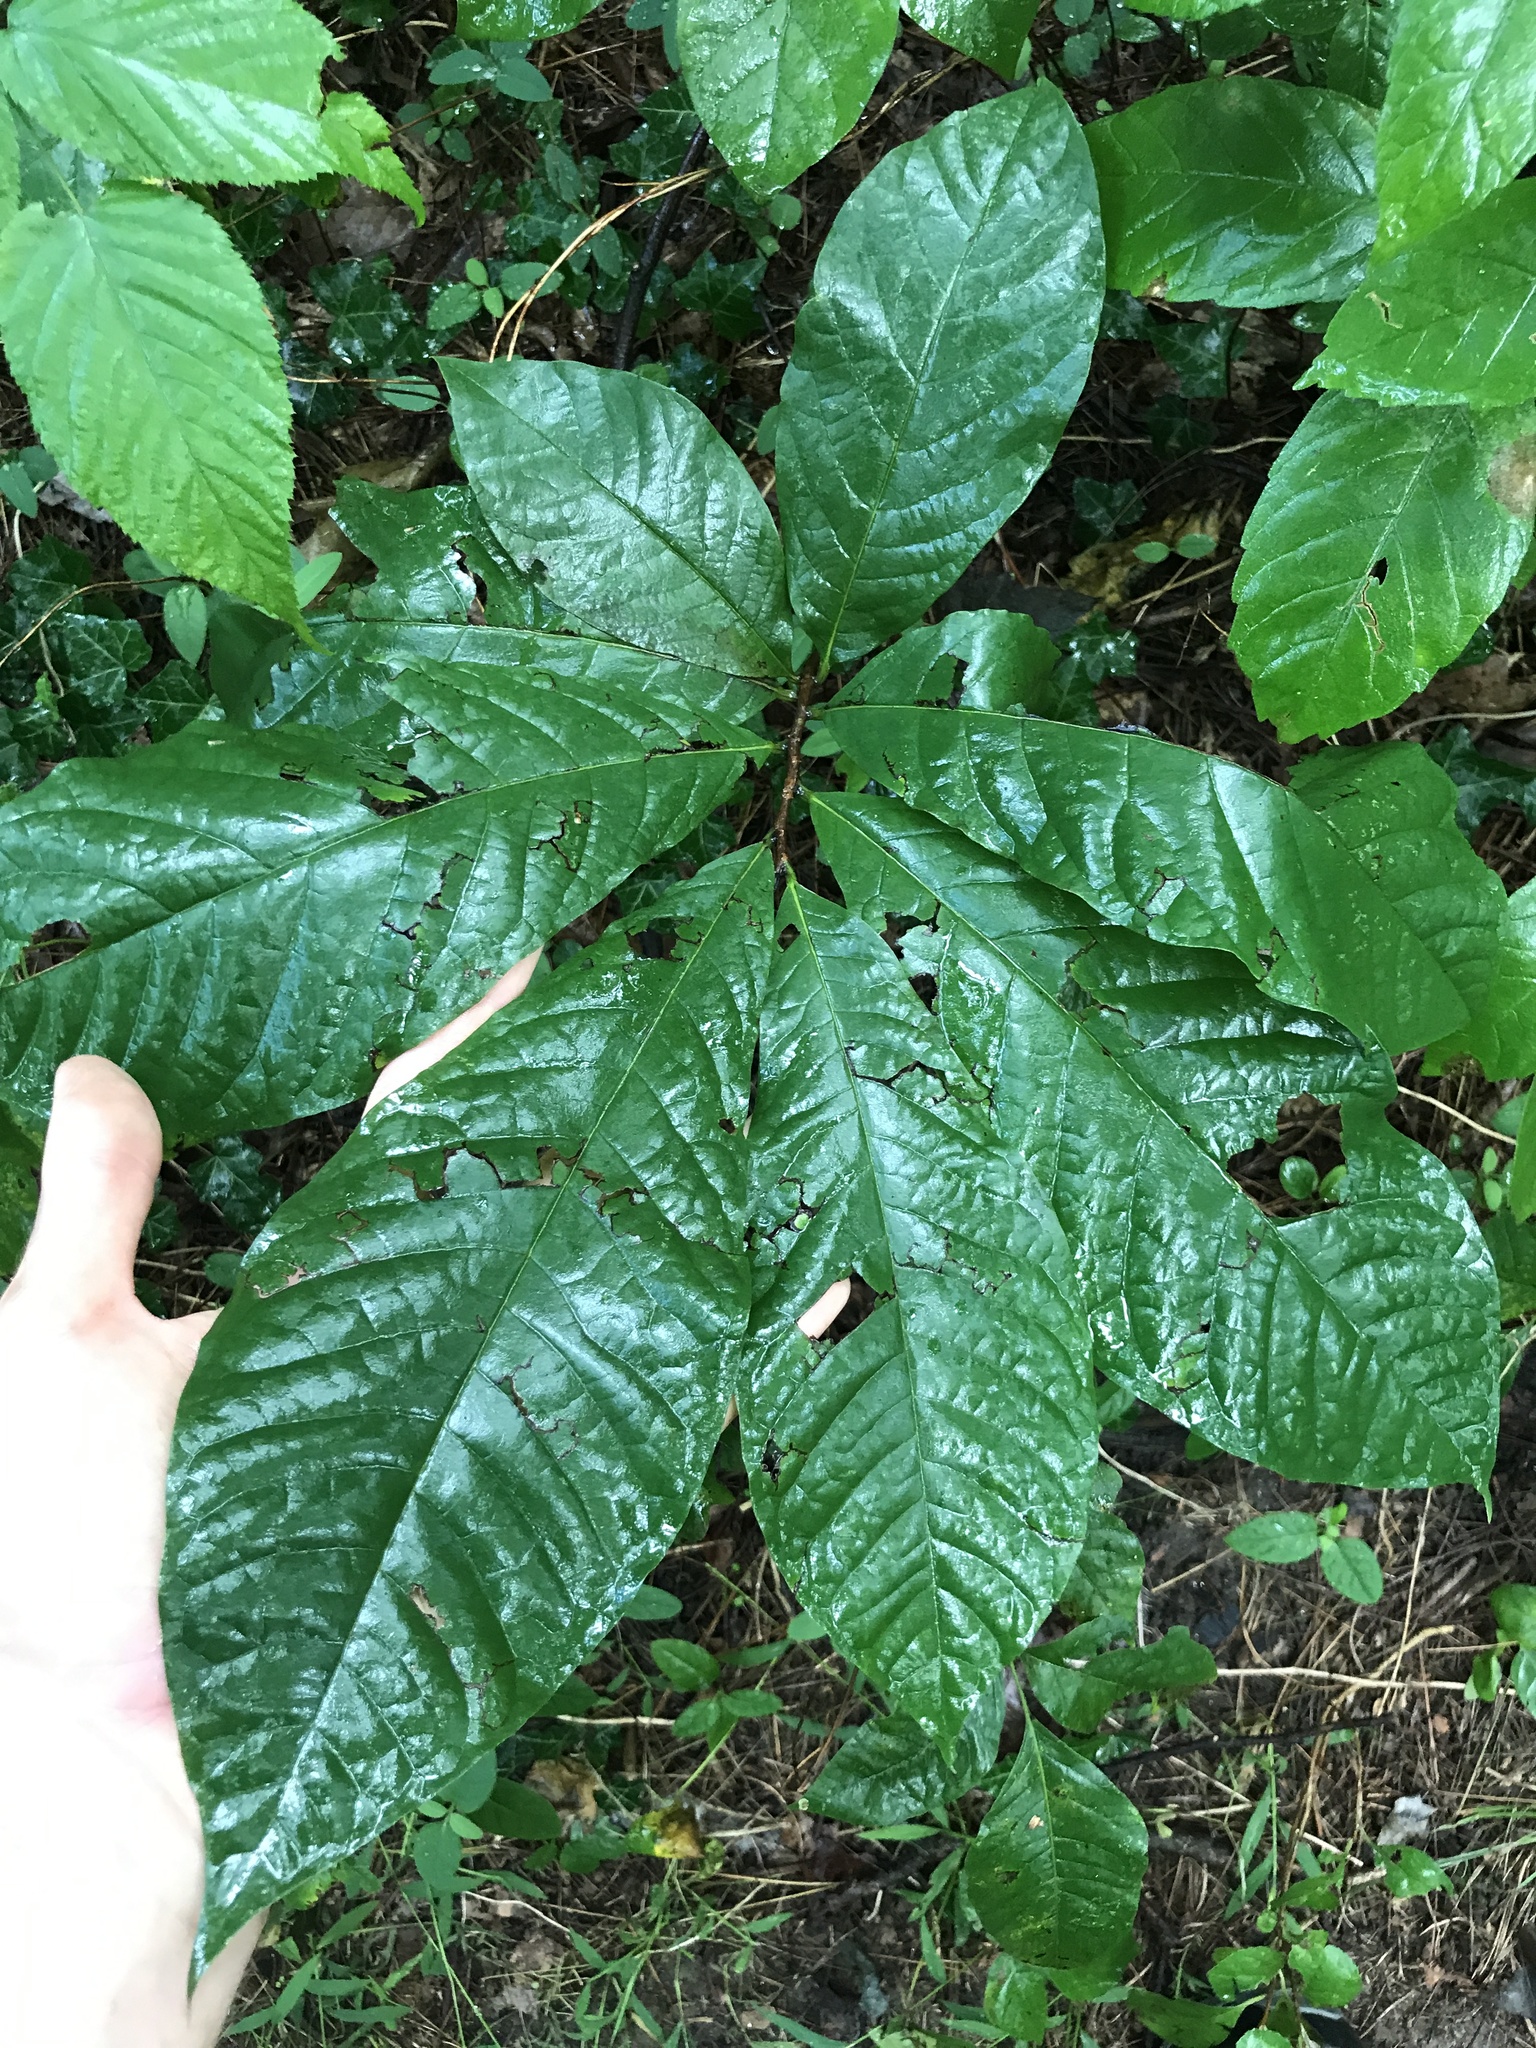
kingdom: Plantae
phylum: Tracheophyta
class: Magnoliopsida
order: Magnoliales
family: Annonaceae
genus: Asimina
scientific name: Asimina triloba
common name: Dog-banana
